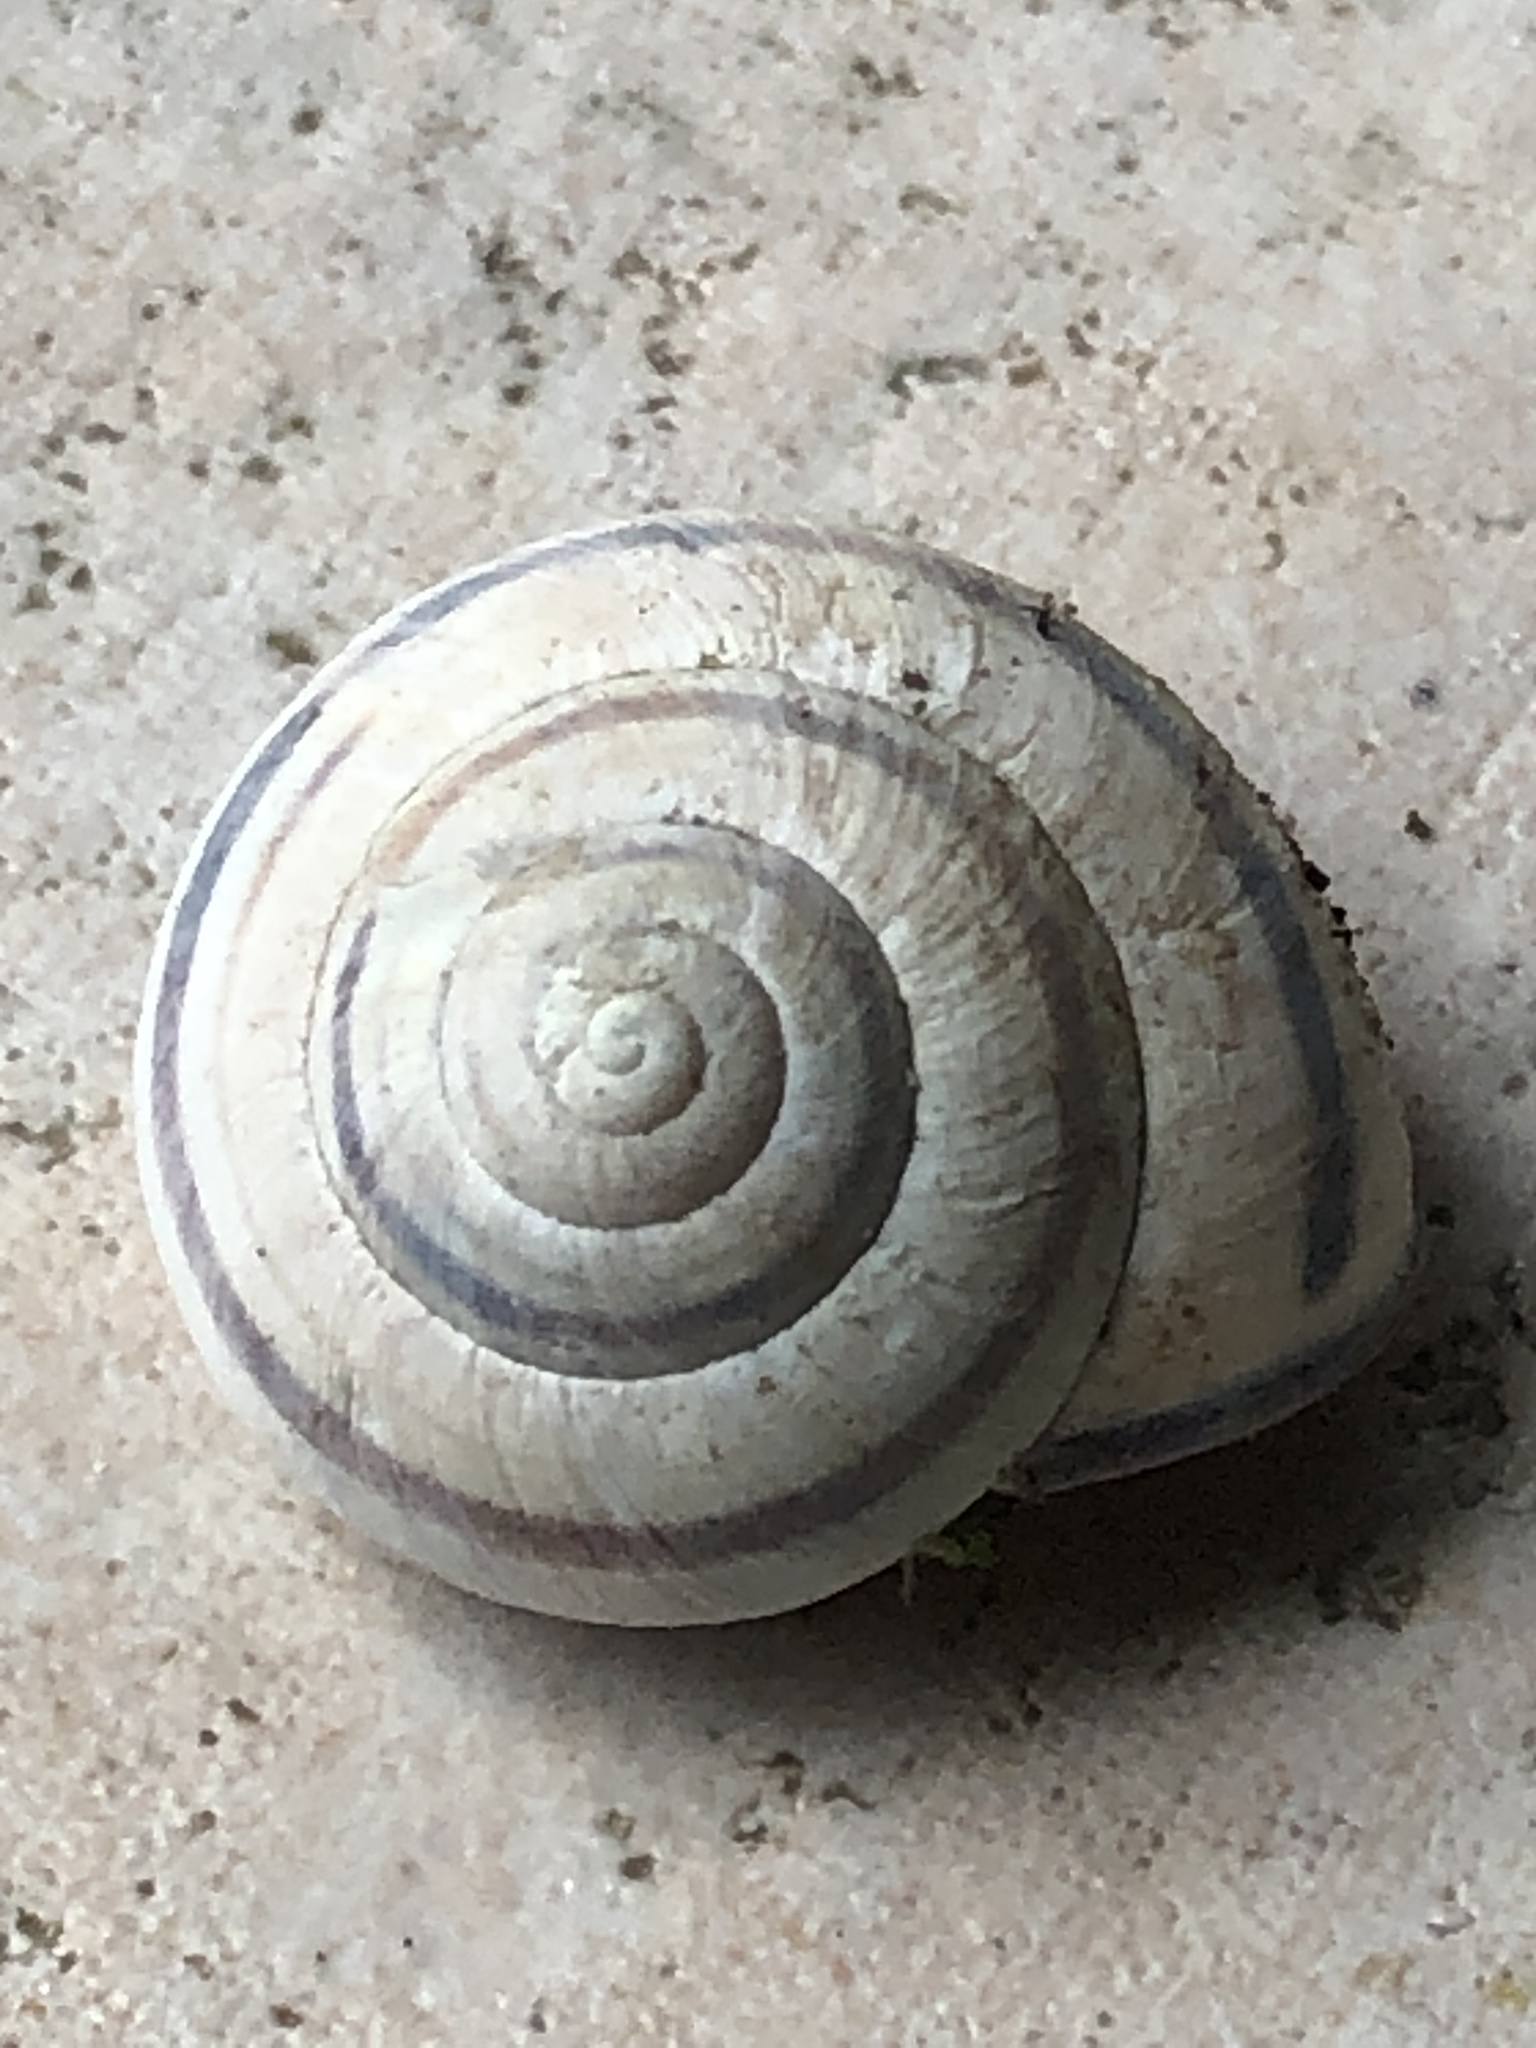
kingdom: Animalia
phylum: Mollusca
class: Gastropoda
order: Stylommatophora
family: Helicidae
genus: Cepaea
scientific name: Cepaea nemoralis
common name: Grovesnail
